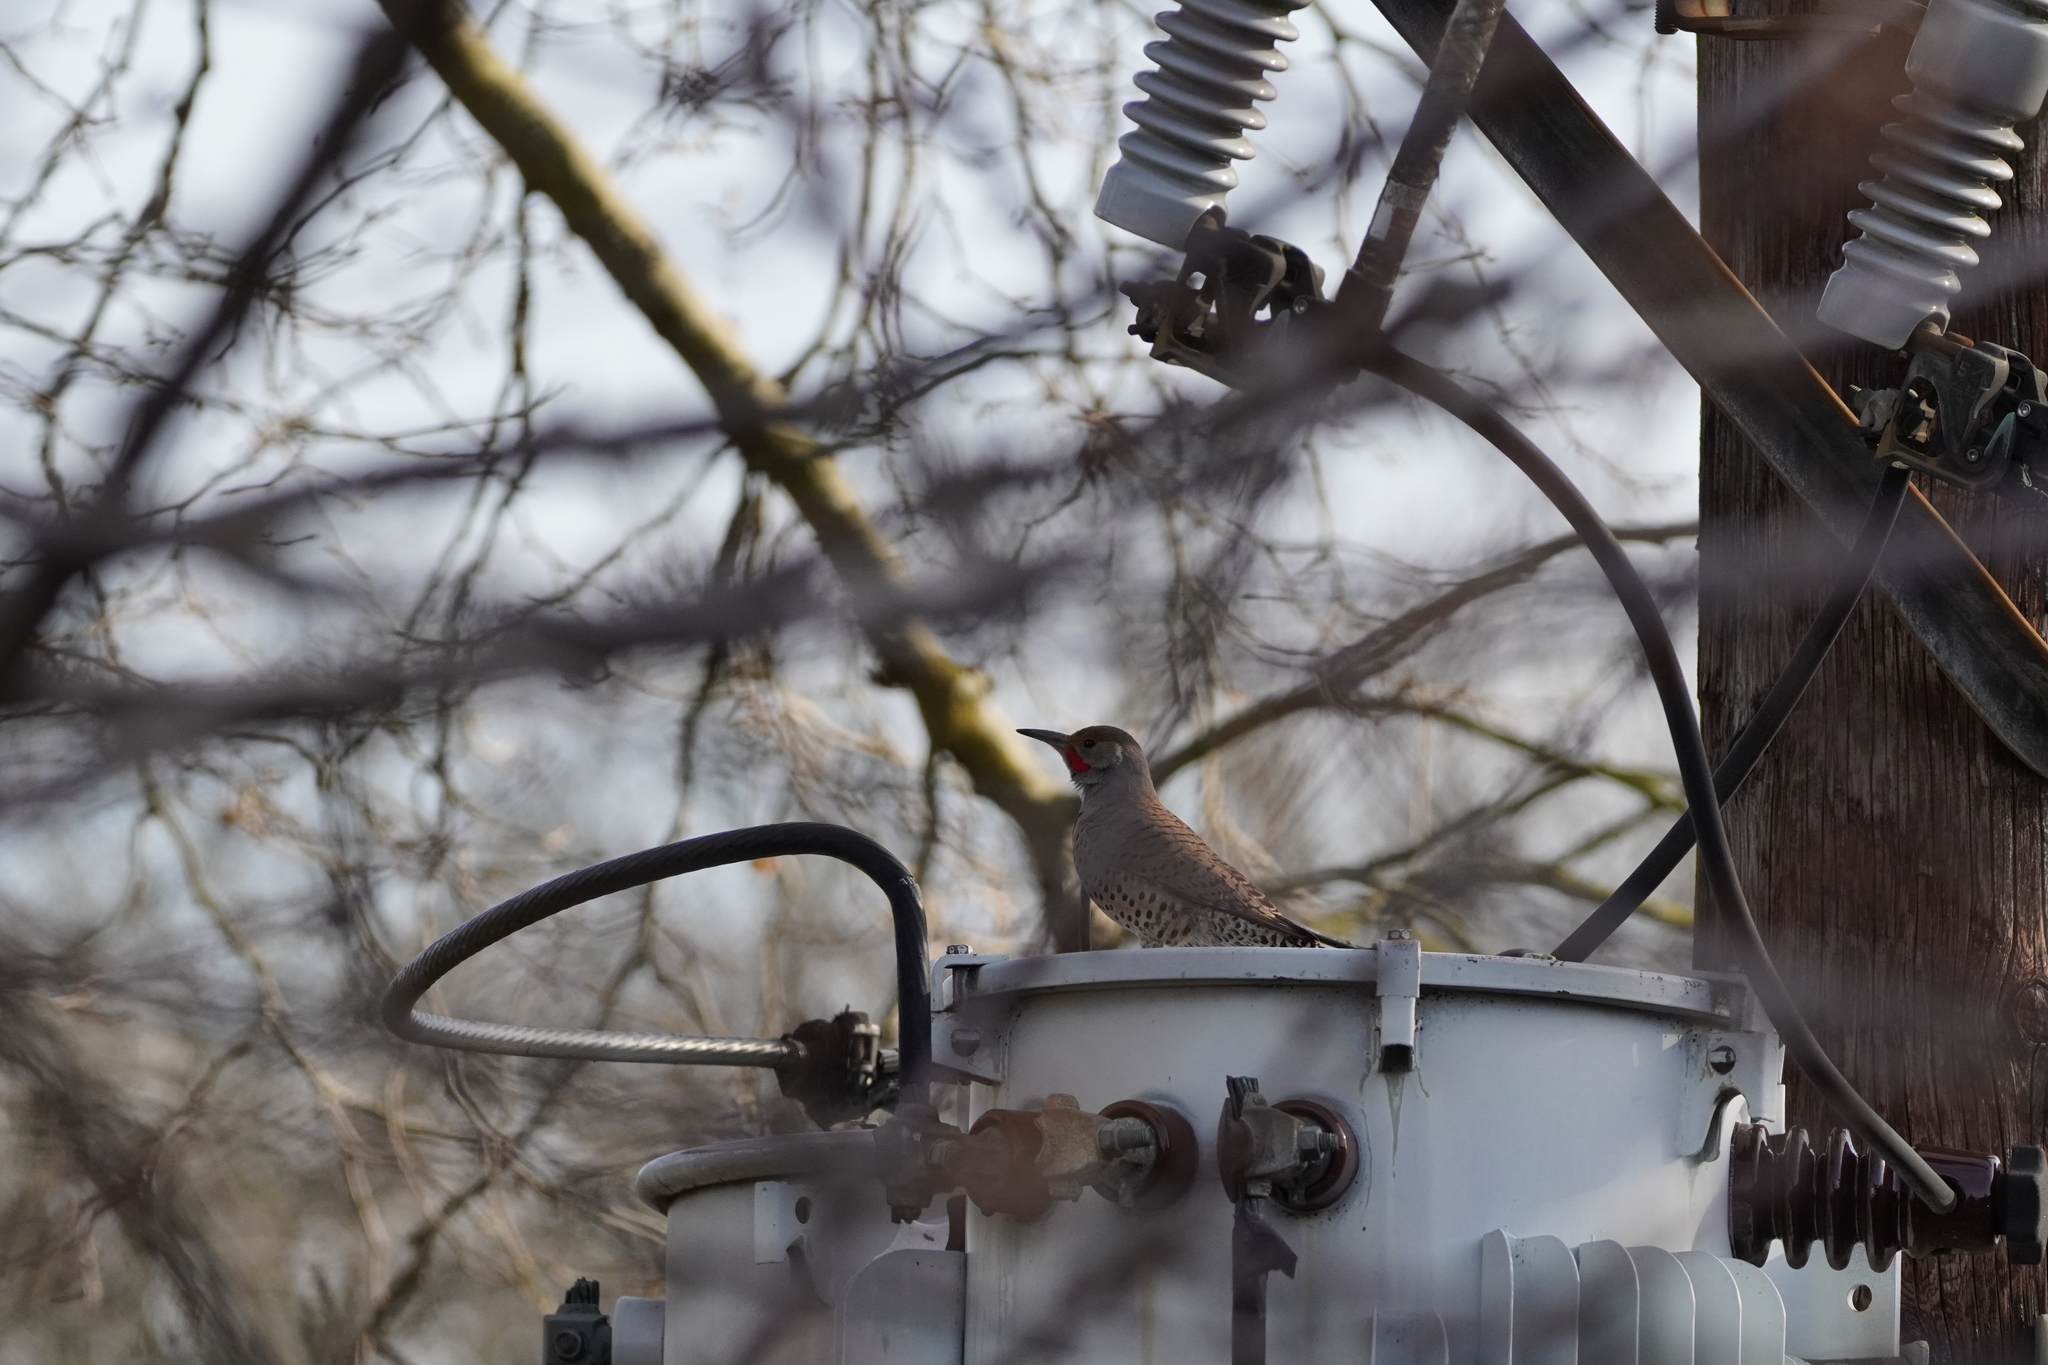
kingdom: Animalia
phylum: Chordata
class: Aves
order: Piciformes
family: Picidae
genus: Colaptes
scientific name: Colaptes auratus
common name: Northern flicker
